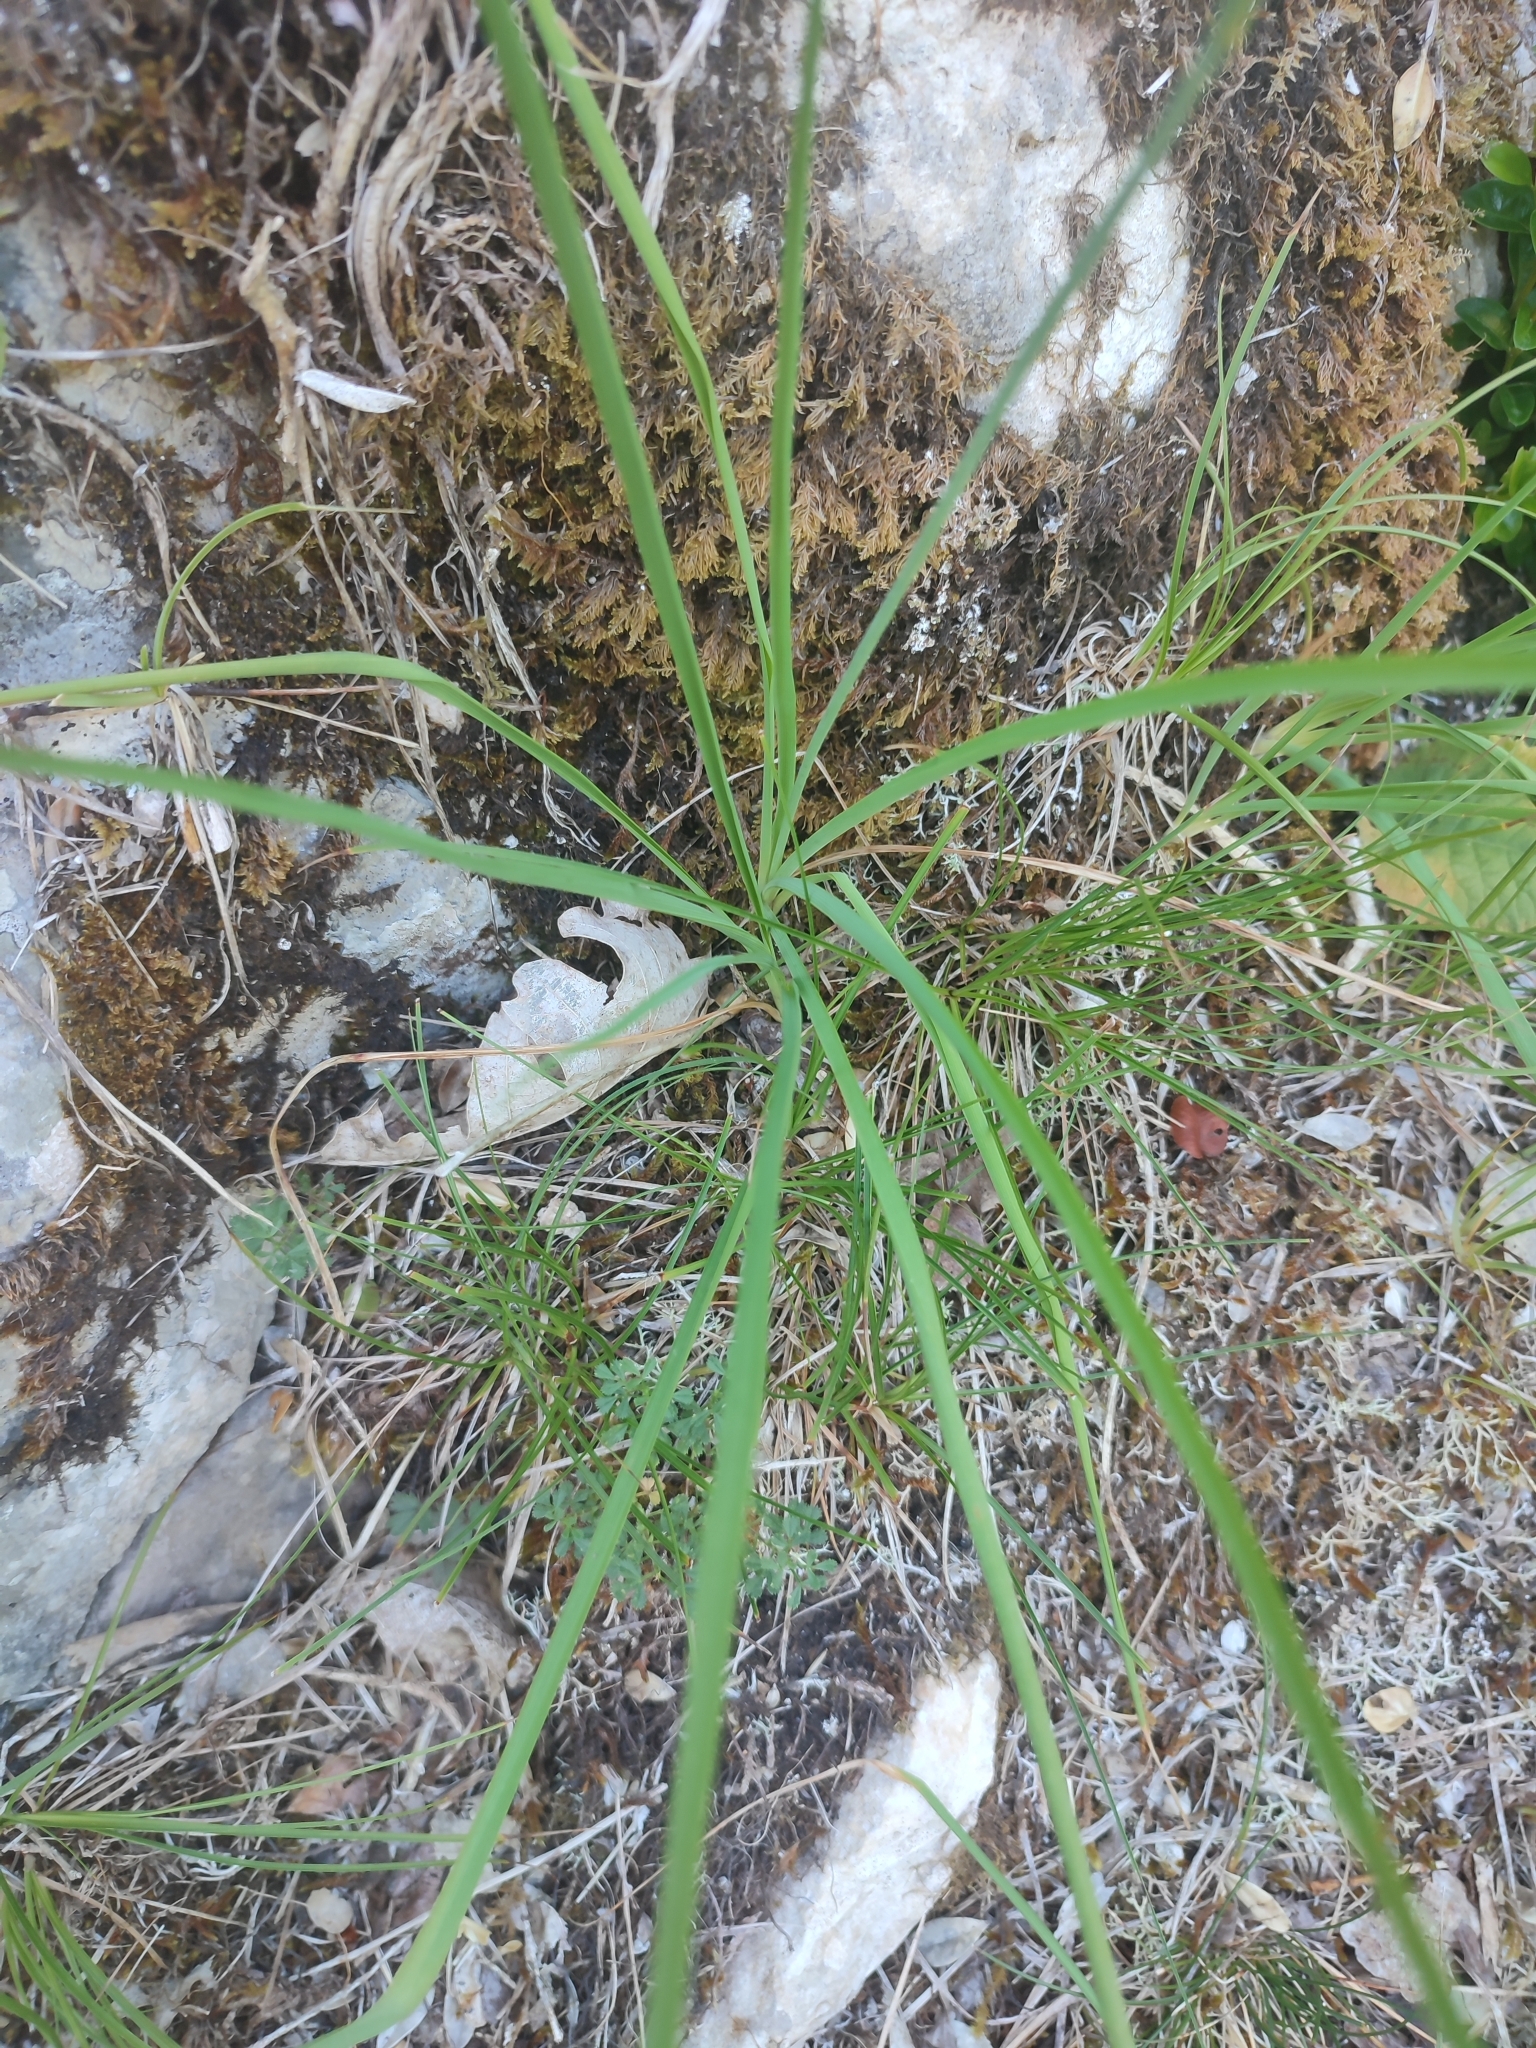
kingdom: Plantae
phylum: Tracheophyta
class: Liliopsida
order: Asparagales
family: Asparagaceae
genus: Anthericum
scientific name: Anthericum ramosum
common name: Branched st. bernard's-lily
